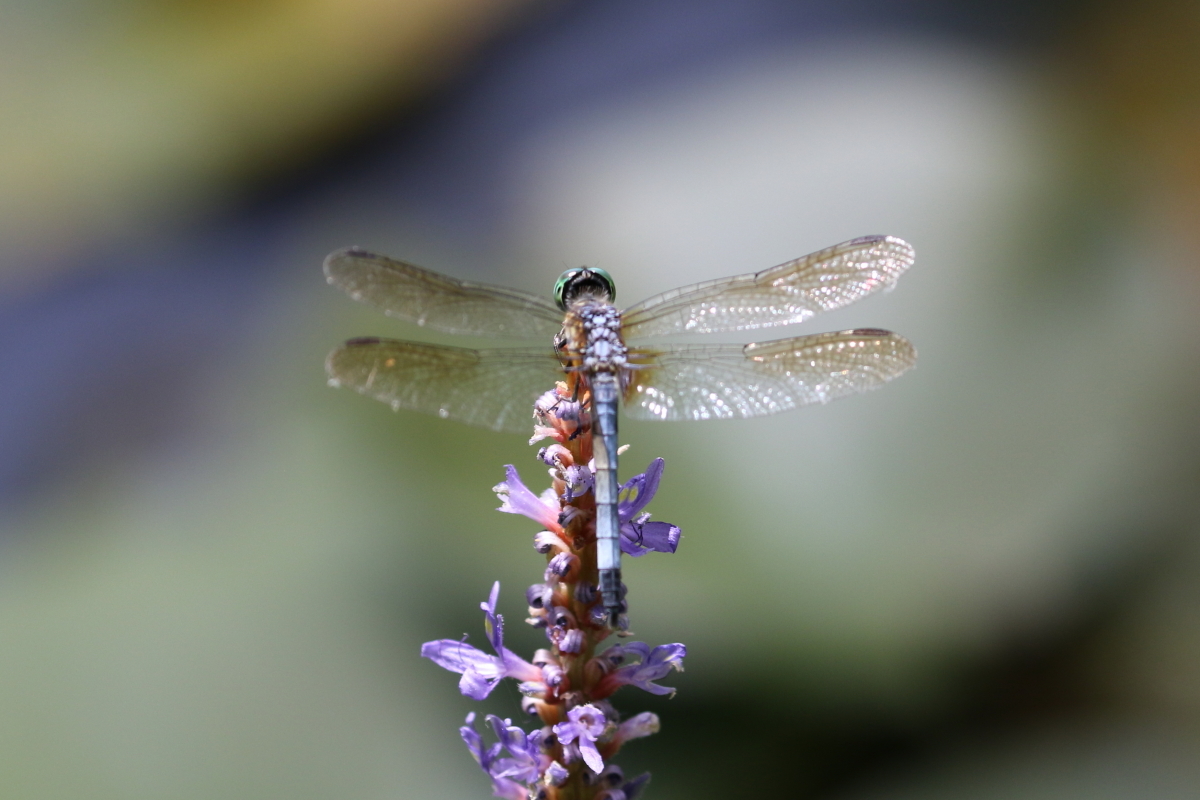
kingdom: Animalia
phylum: Arthropoda
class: Insecta
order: Odonata
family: Libellulidae
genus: Pachydiplax
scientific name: Pachydiplax longipennis
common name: Blue dasher
